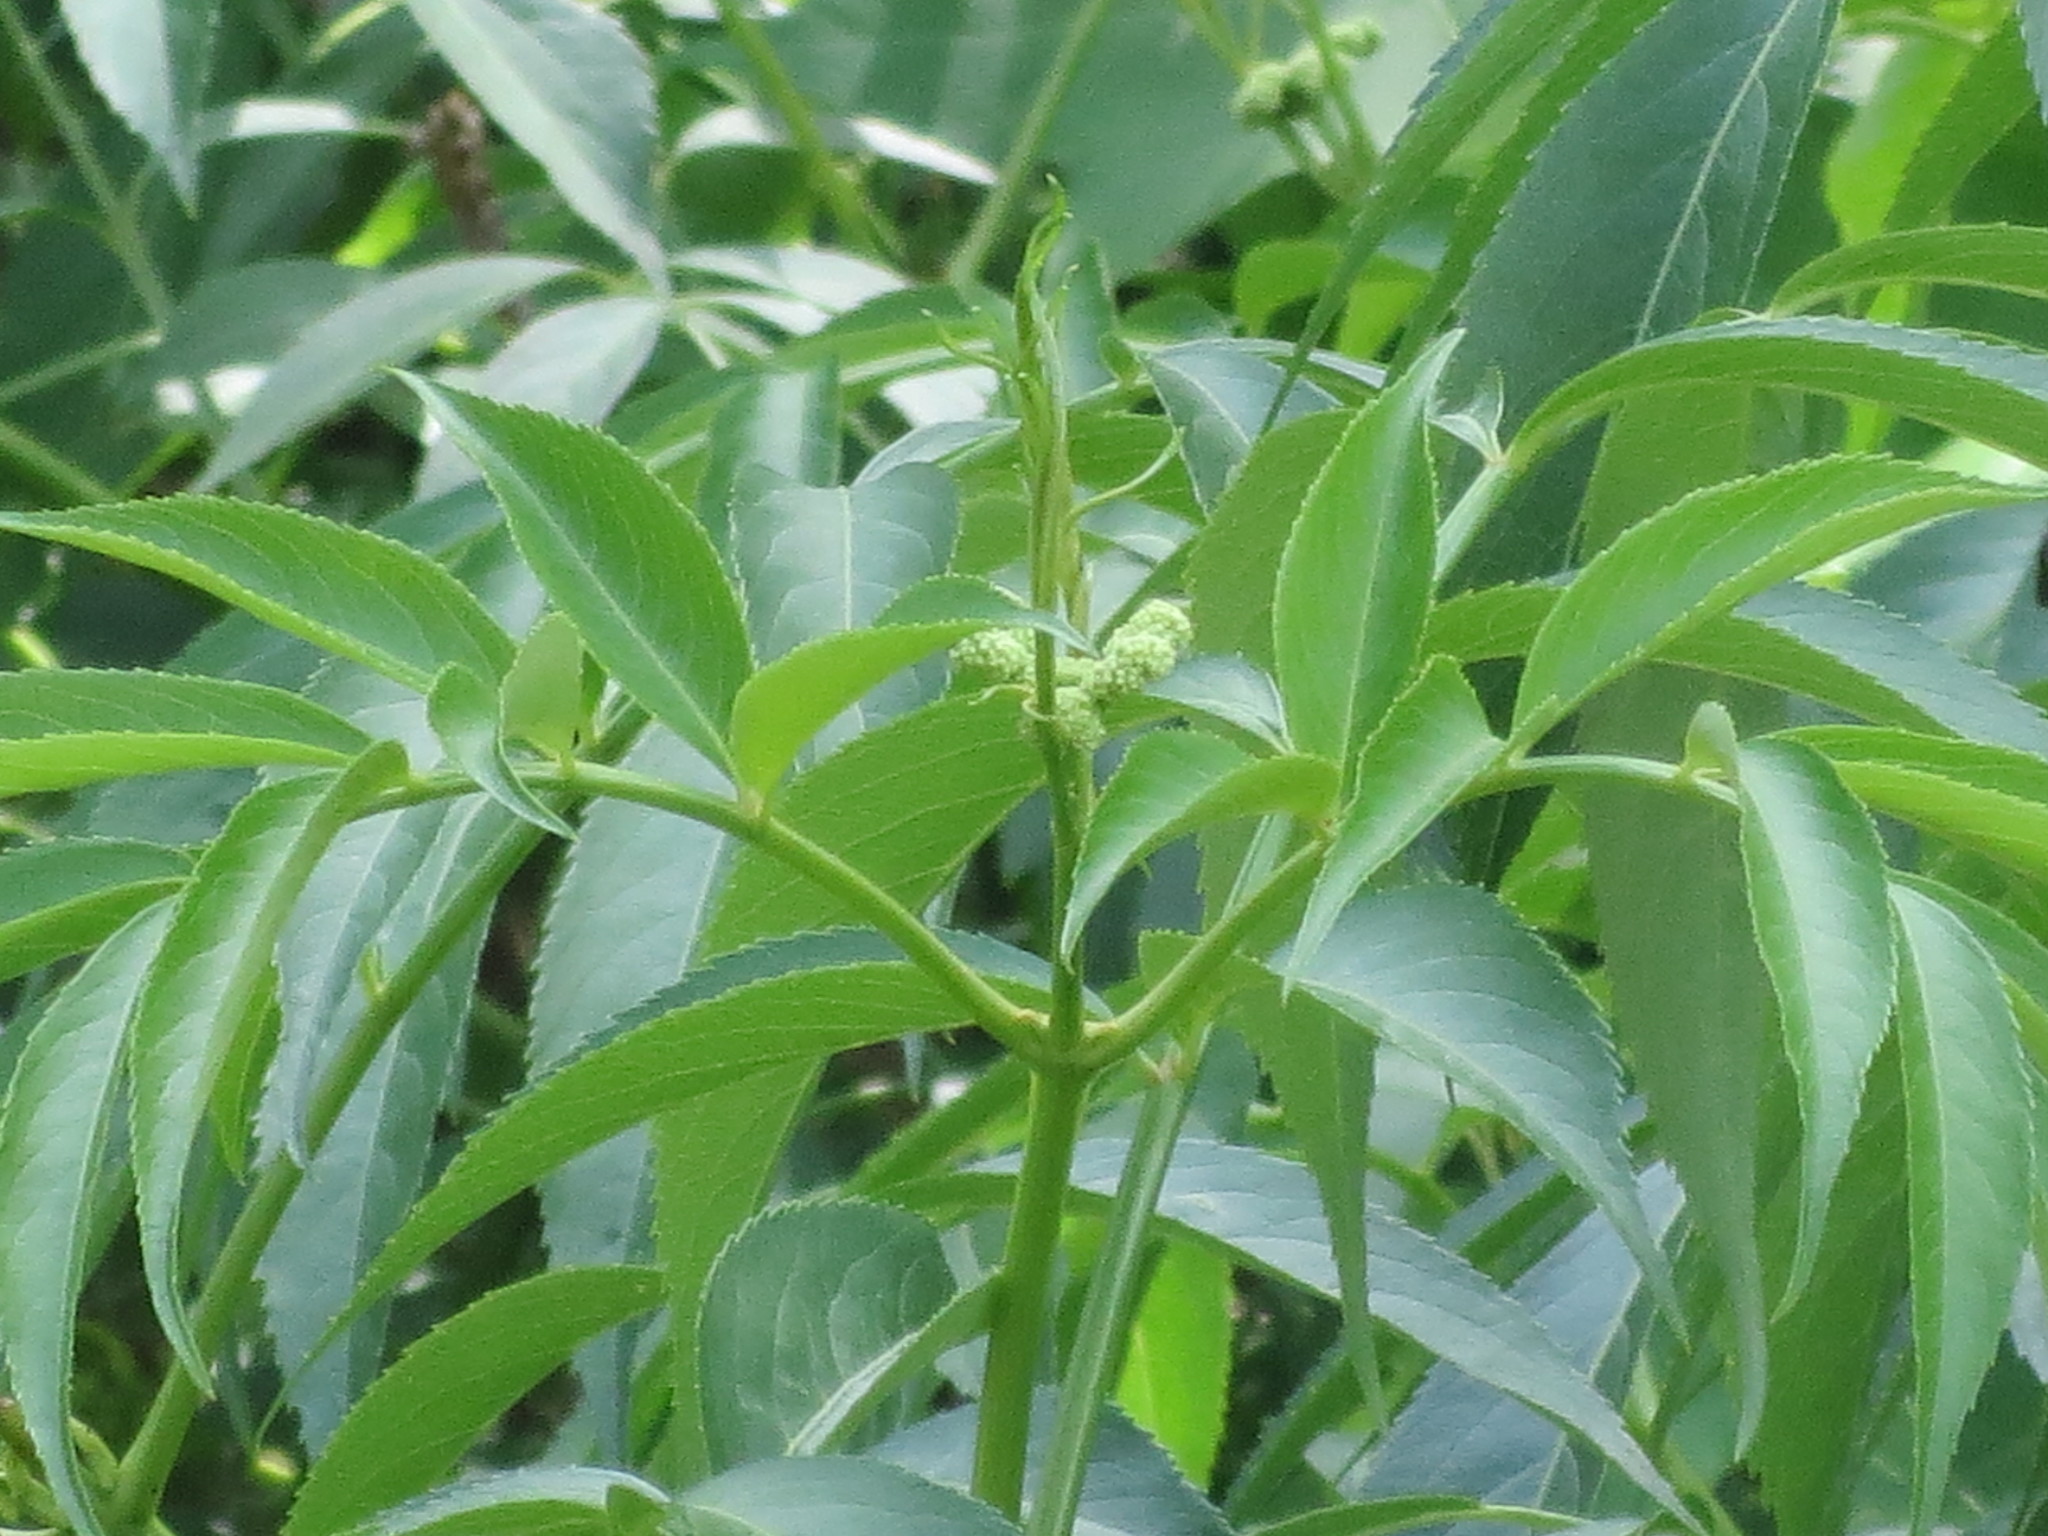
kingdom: Plantae
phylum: Tracheophyta
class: Magnoliopsida
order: Dipsacales
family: Viburnaceae
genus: Sambucus
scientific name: Sambucus canadensis
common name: American elder
